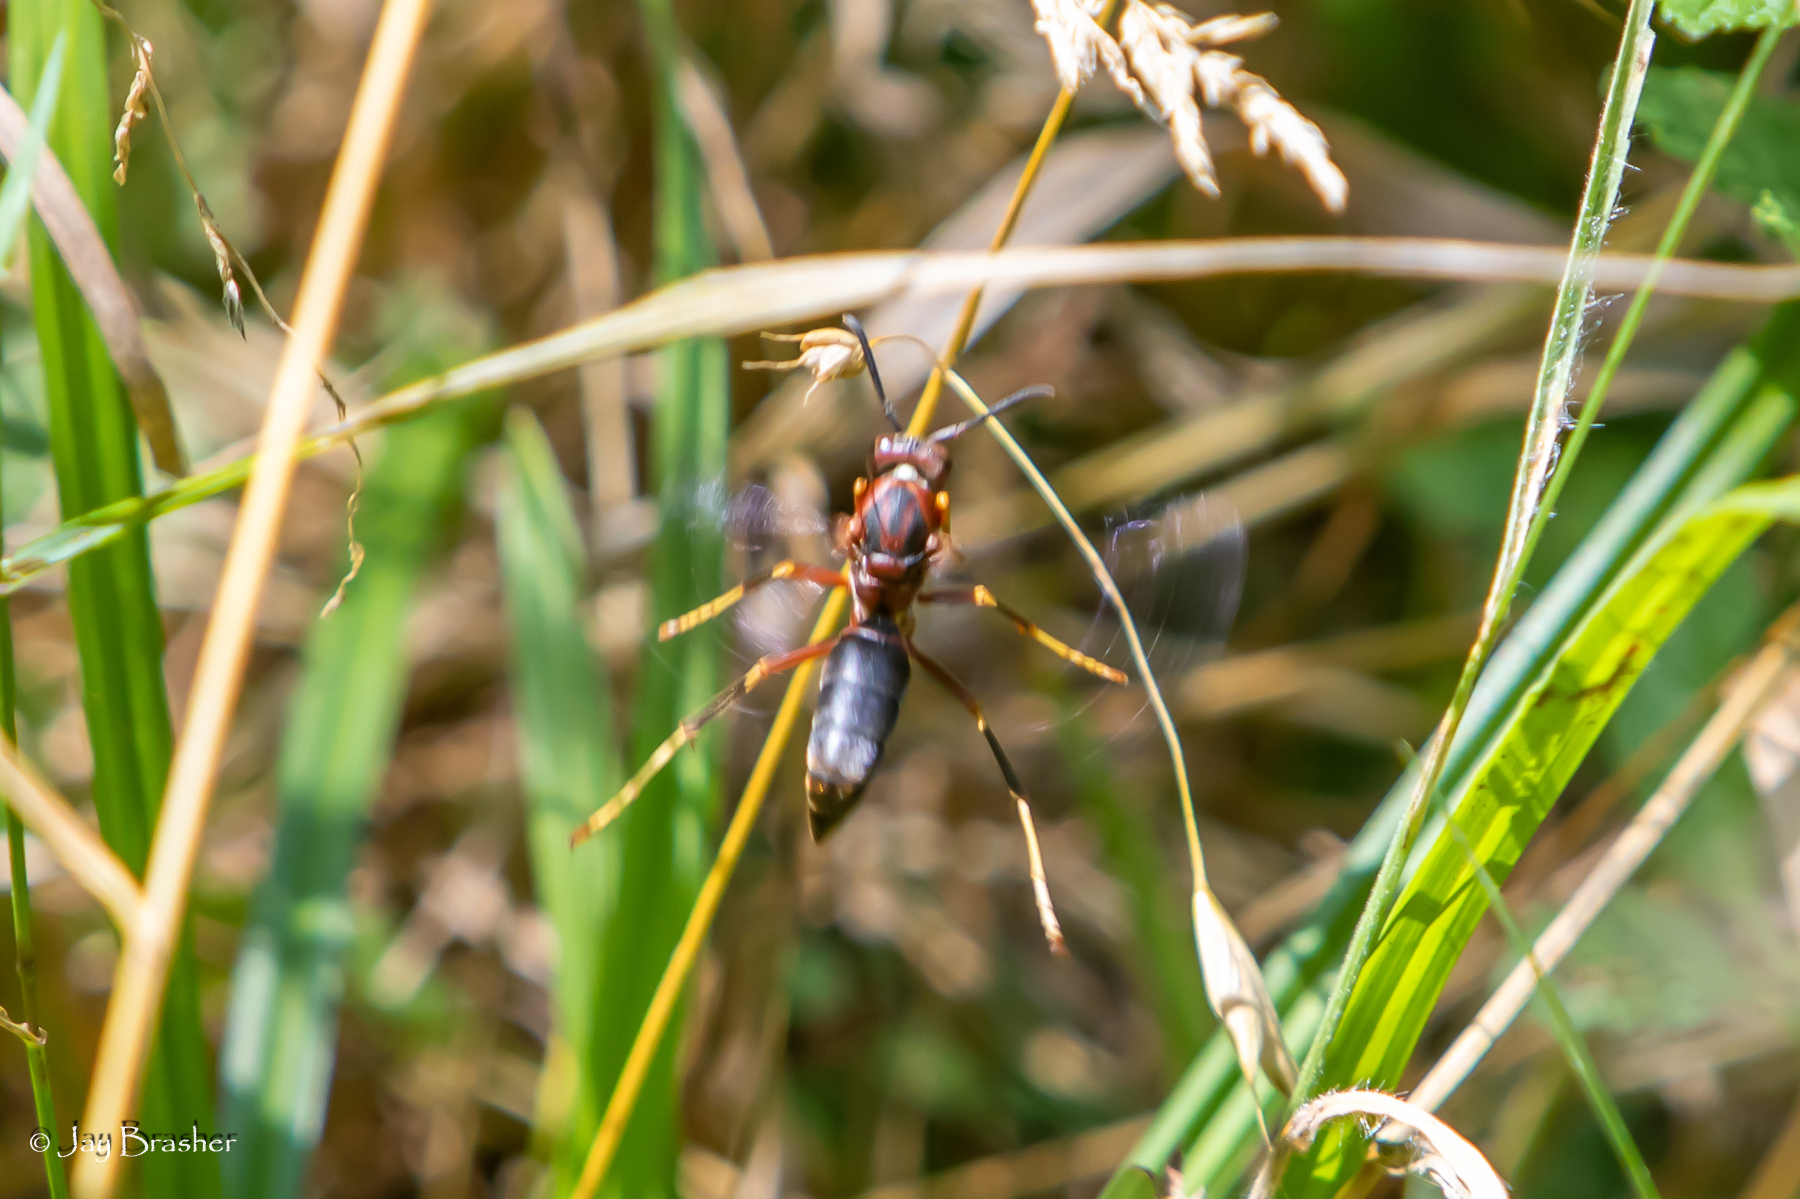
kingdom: Animalia
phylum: Arthropoda
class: Insecta
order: Hymenoptera
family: Eumenidae
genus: Polistes
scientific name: Polistes metricus
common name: Metric paper wasp
